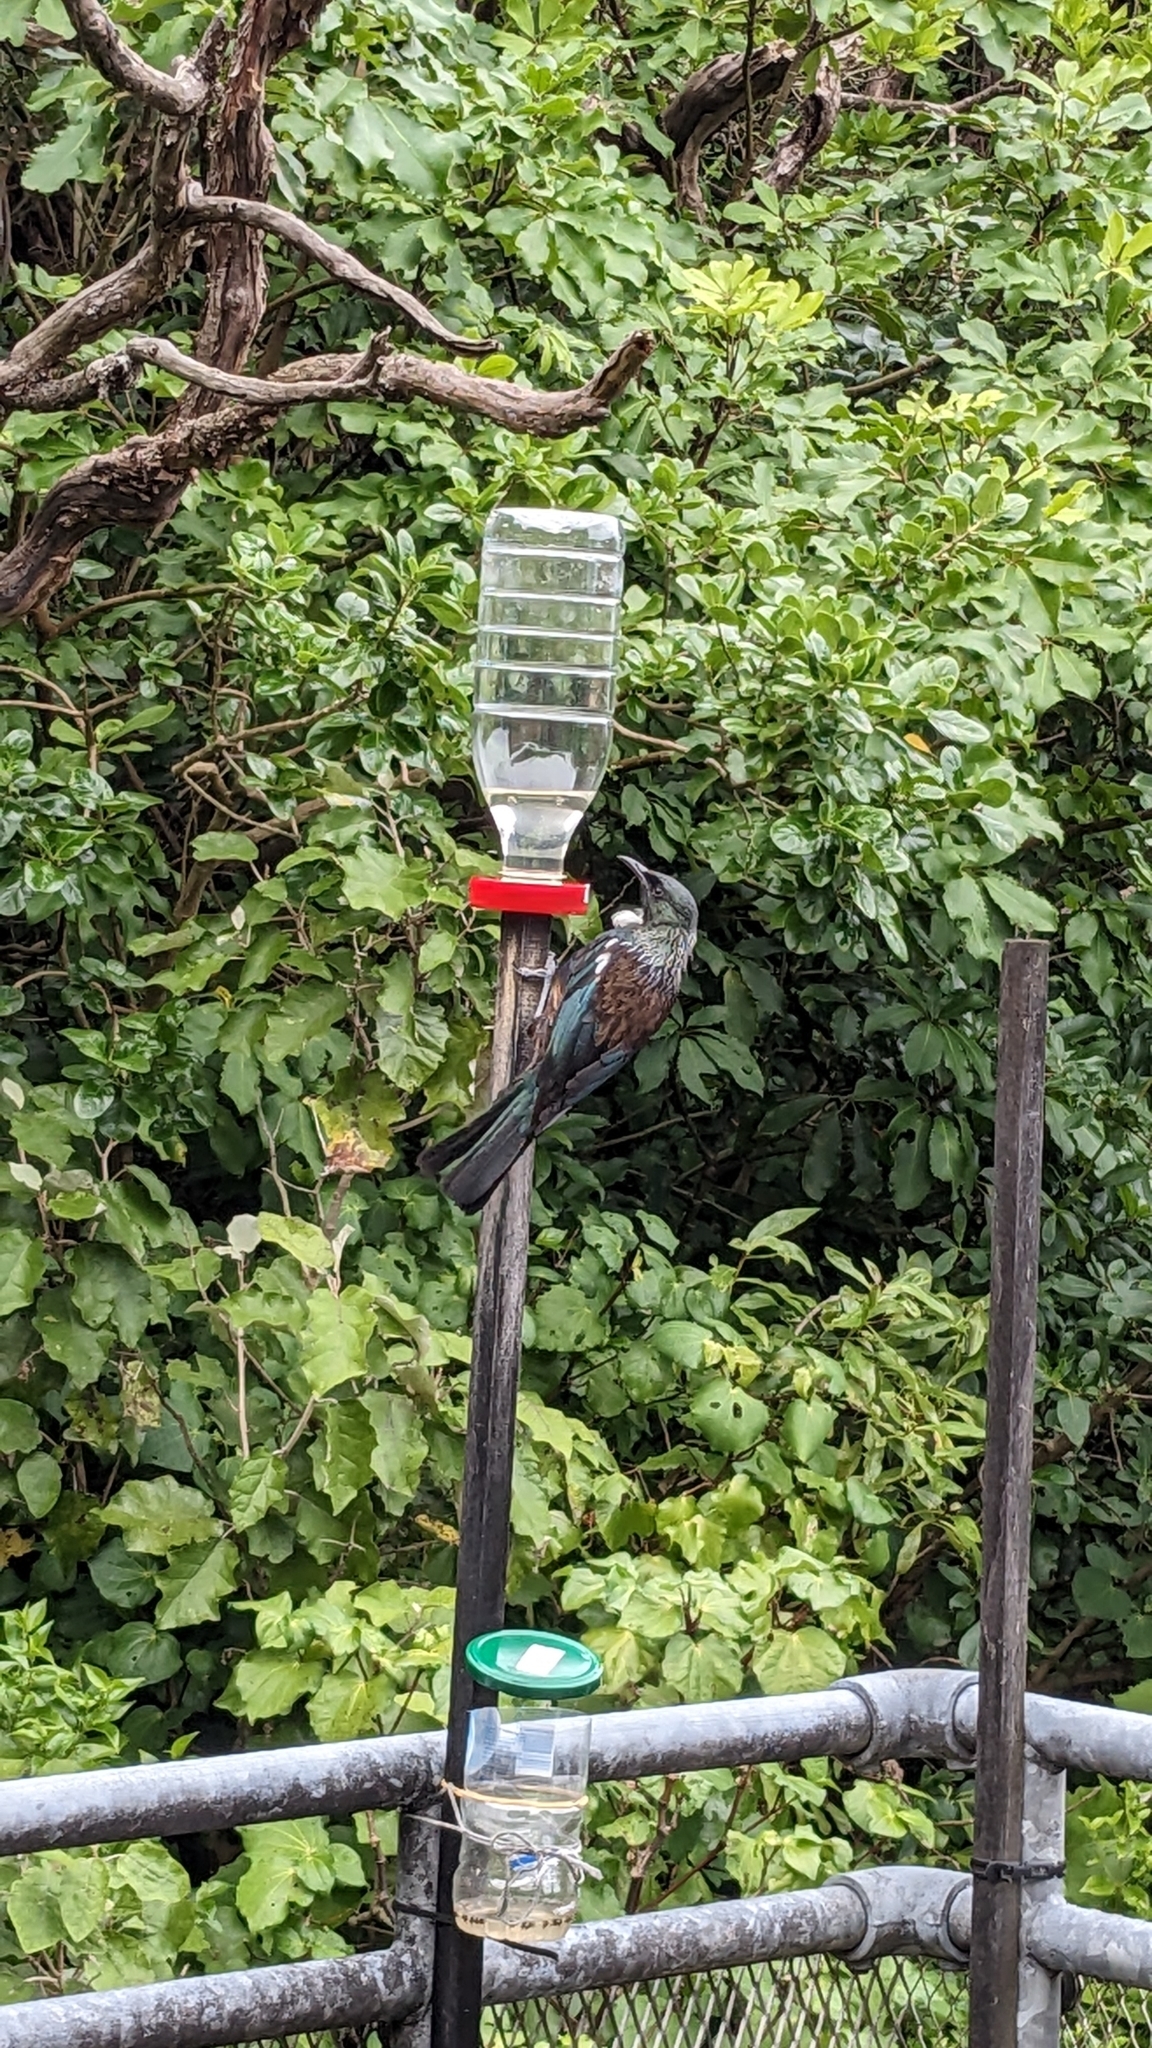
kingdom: Animalia
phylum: Chordata
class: Aves
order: Passeriformes
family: Meliphagidae
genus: Prosthemadera
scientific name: Prosthemadera novaeseelandiae
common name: Tui
